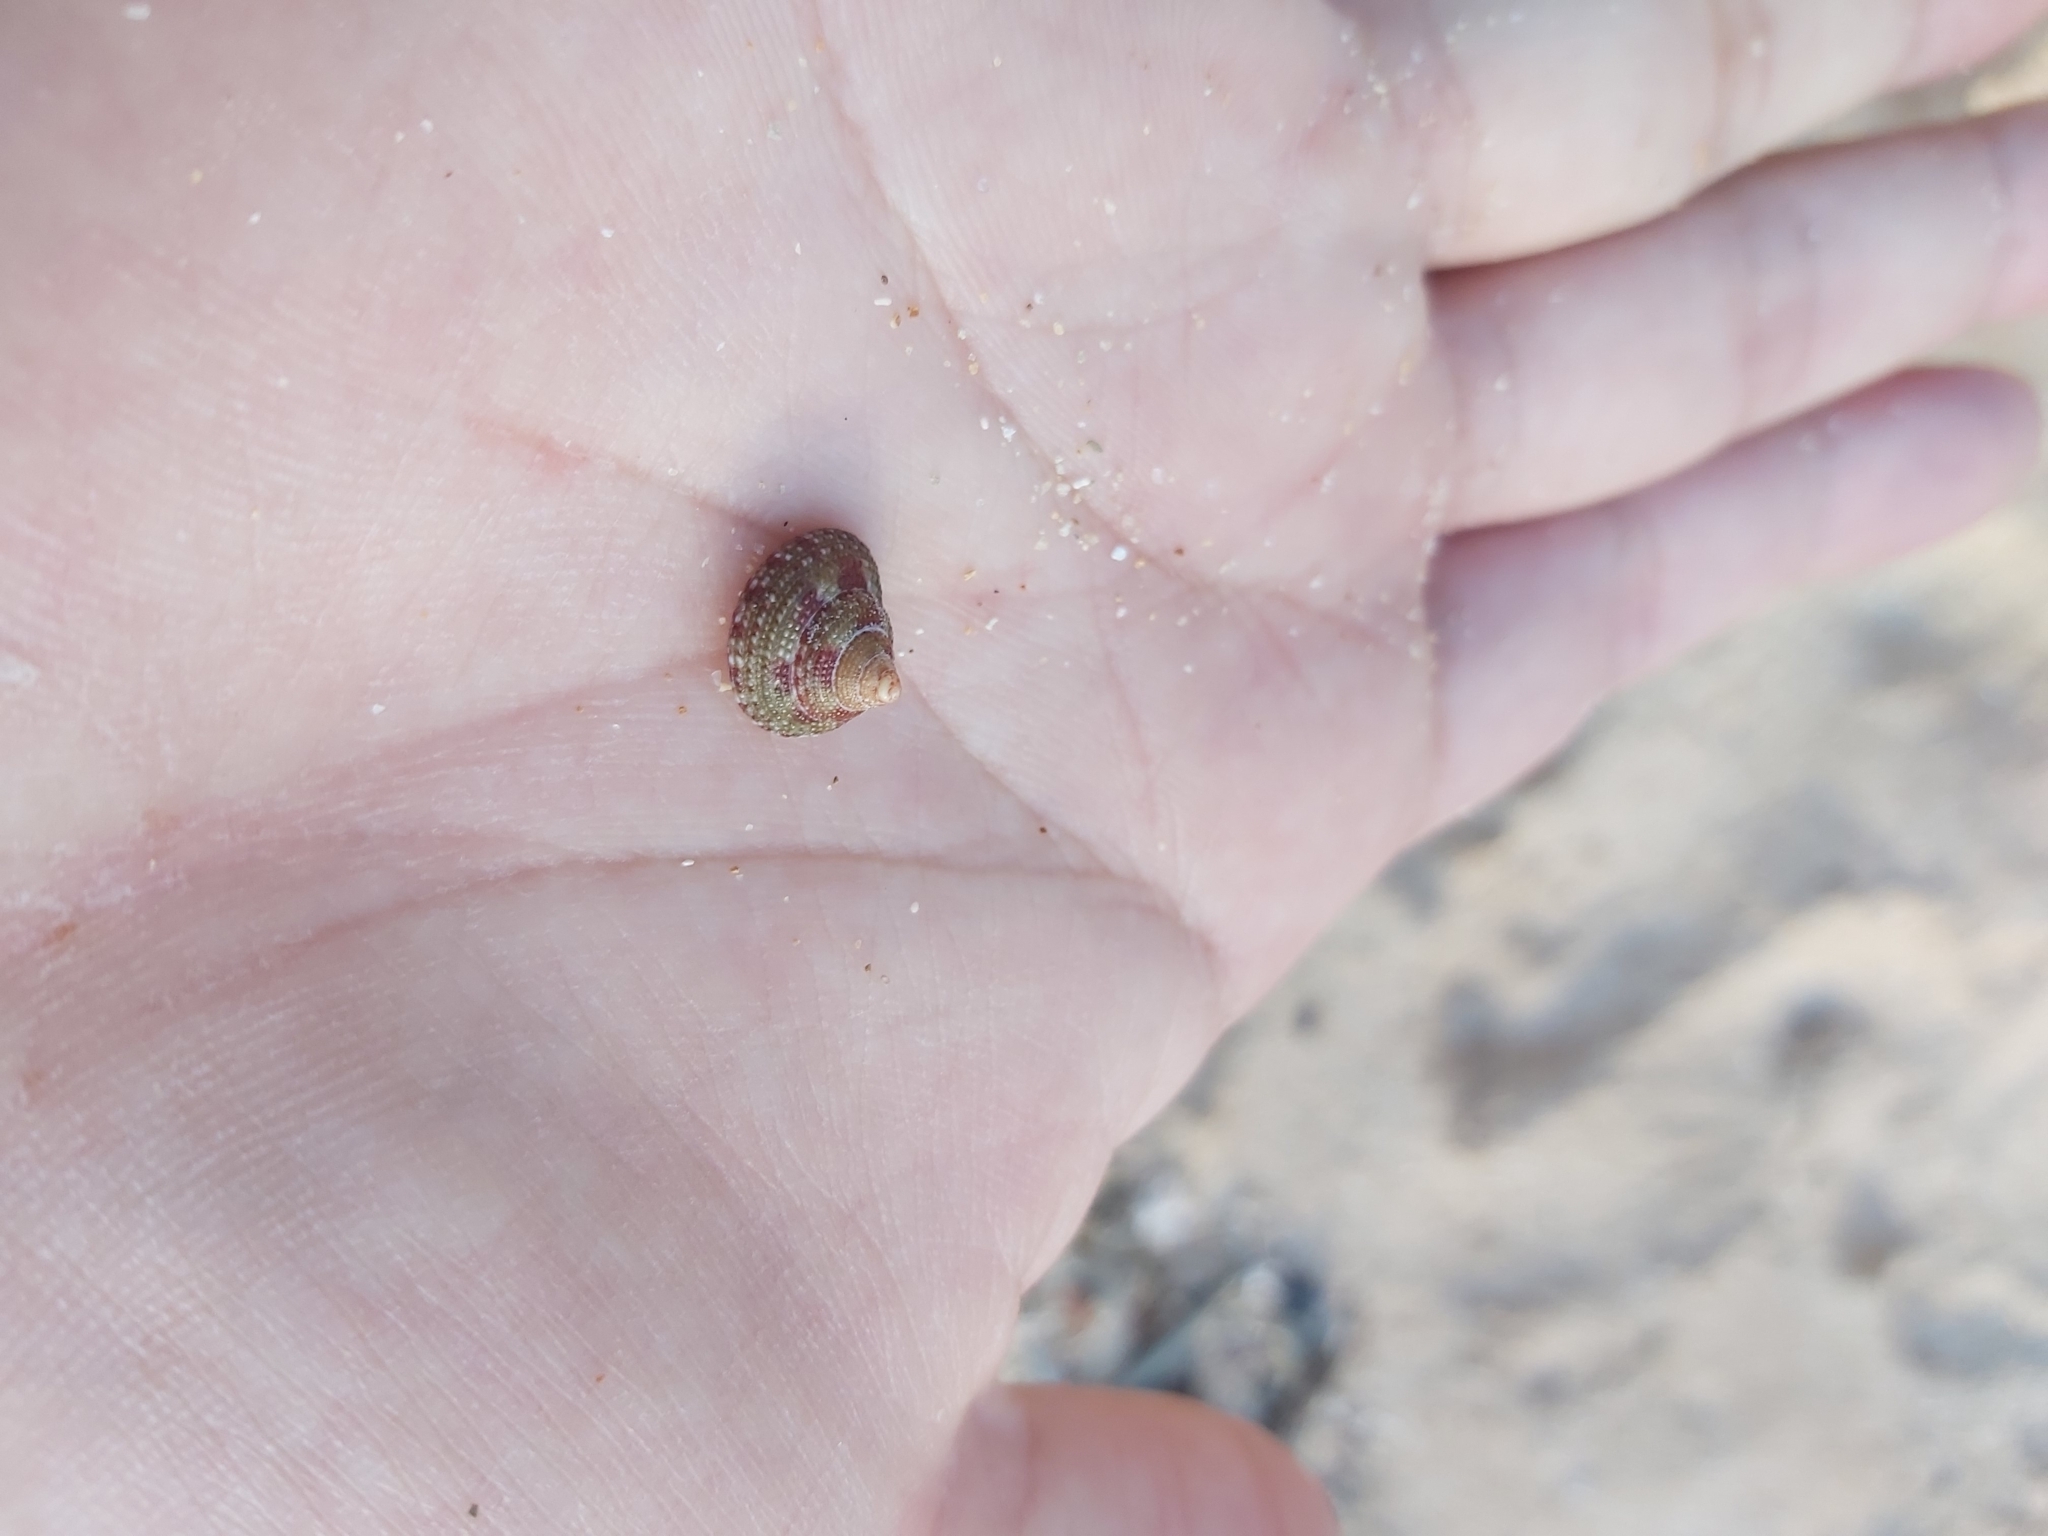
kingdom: Animalia
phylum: Mollusca
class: Gastropoda
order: Trochida
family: Trochidae
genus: Clanculus
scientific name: Clanculus clangulus
